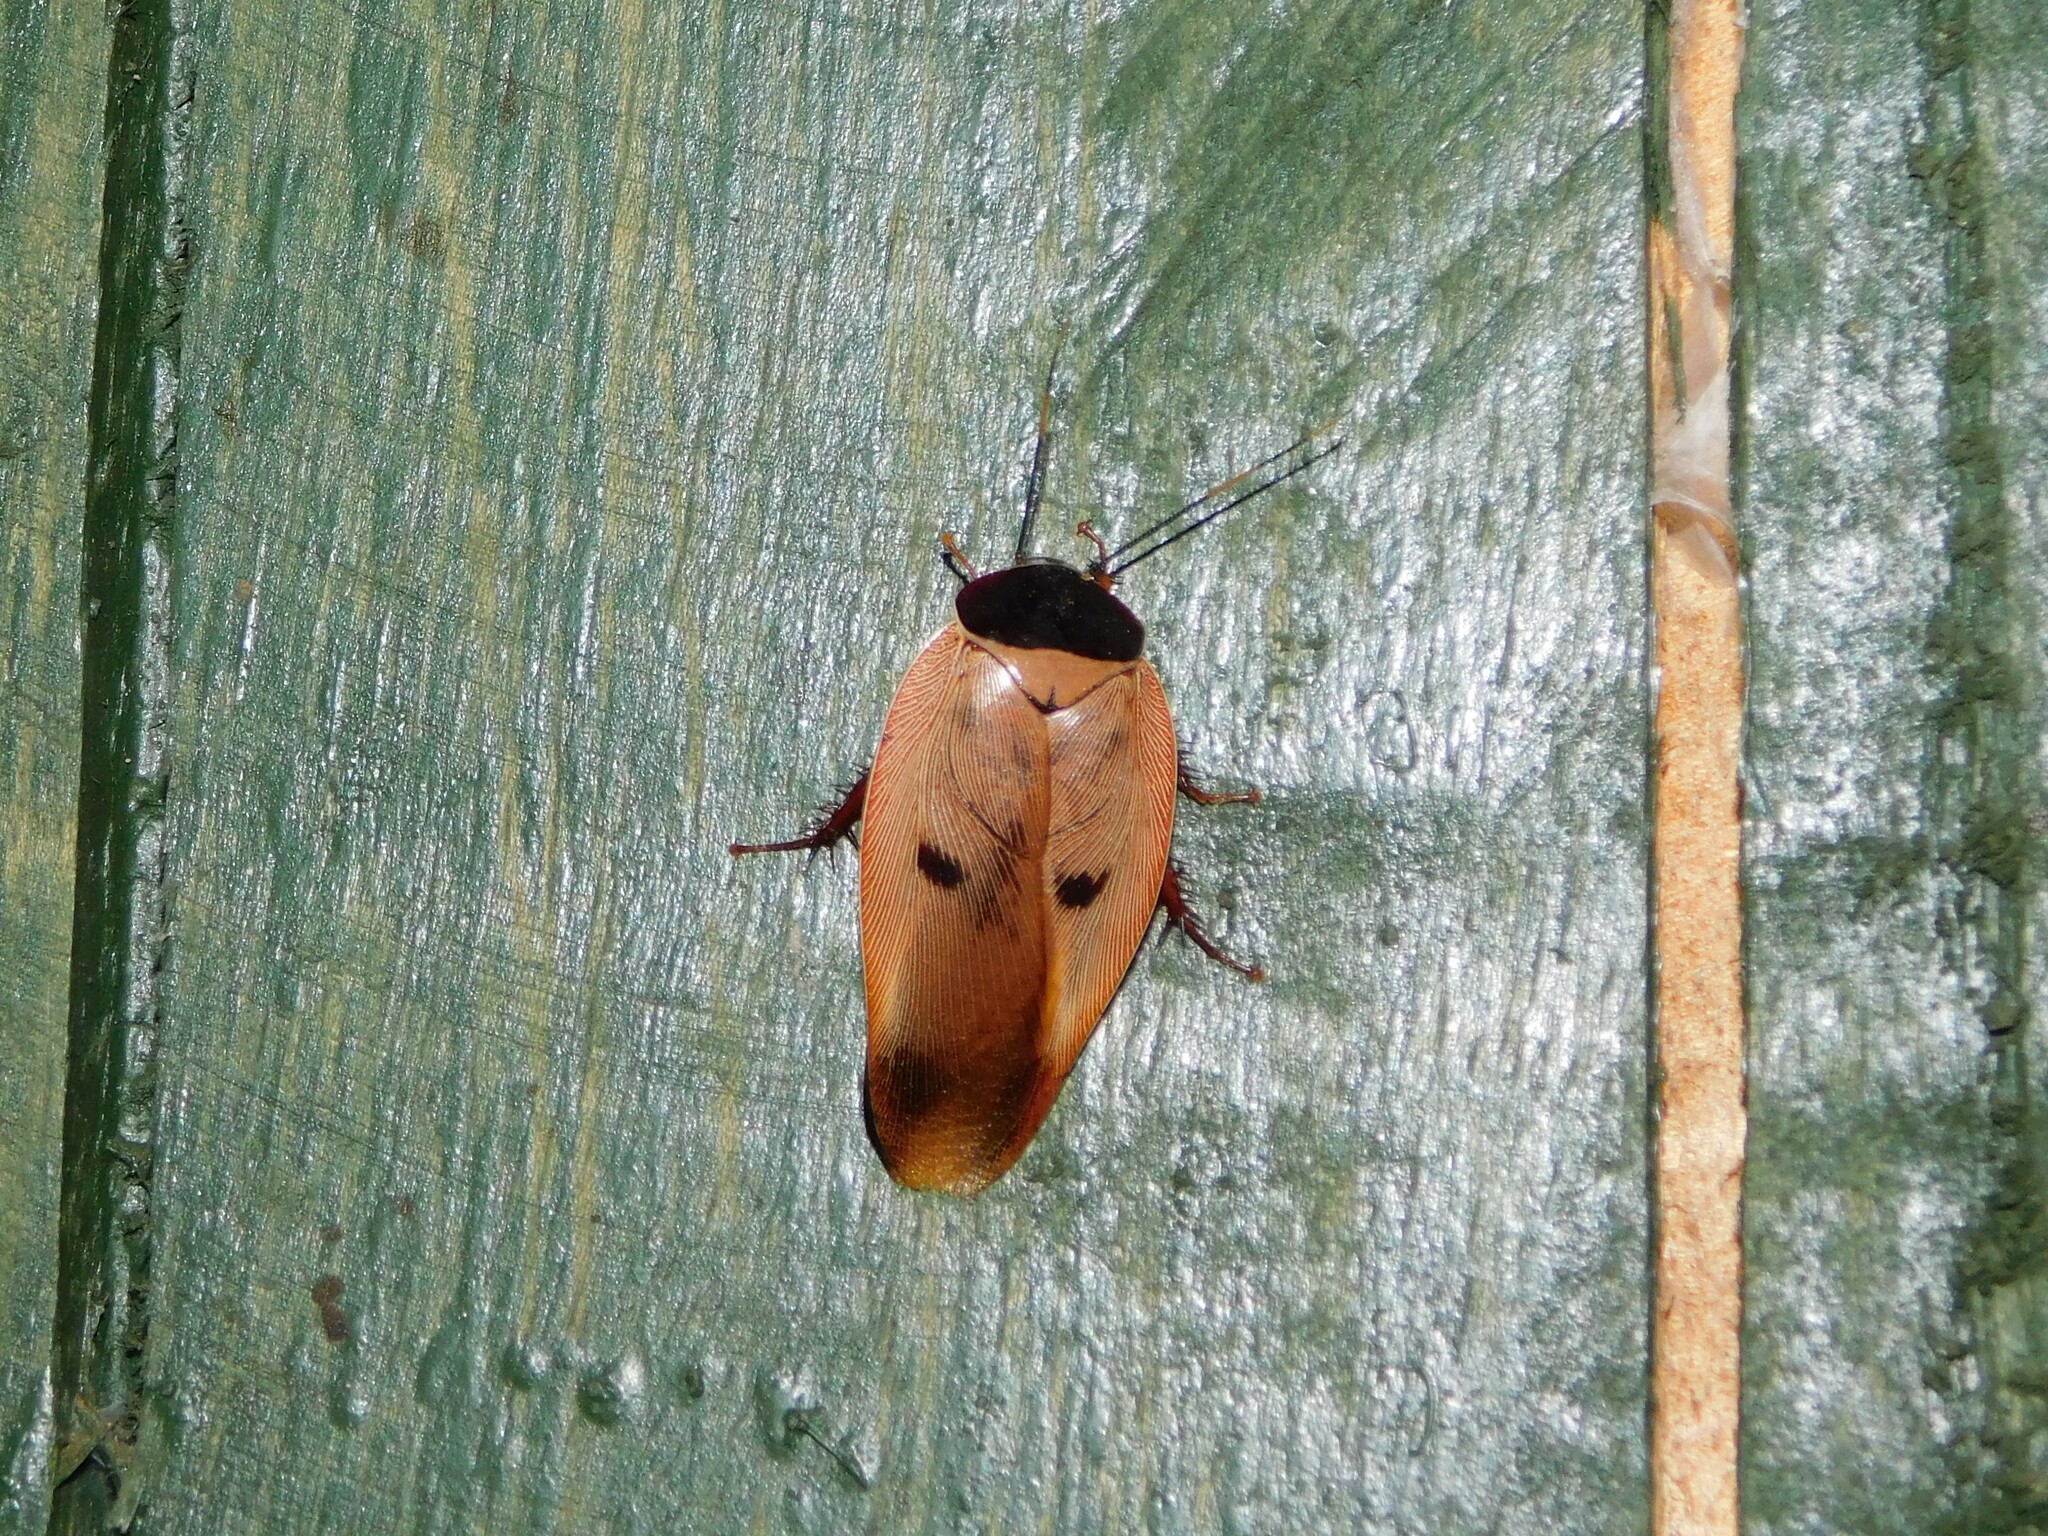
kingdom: Animalia
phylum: Arthropoda
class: Insecta
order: Blattodea
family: Blaberidae
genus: Gyna
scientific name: Gyna capucina
